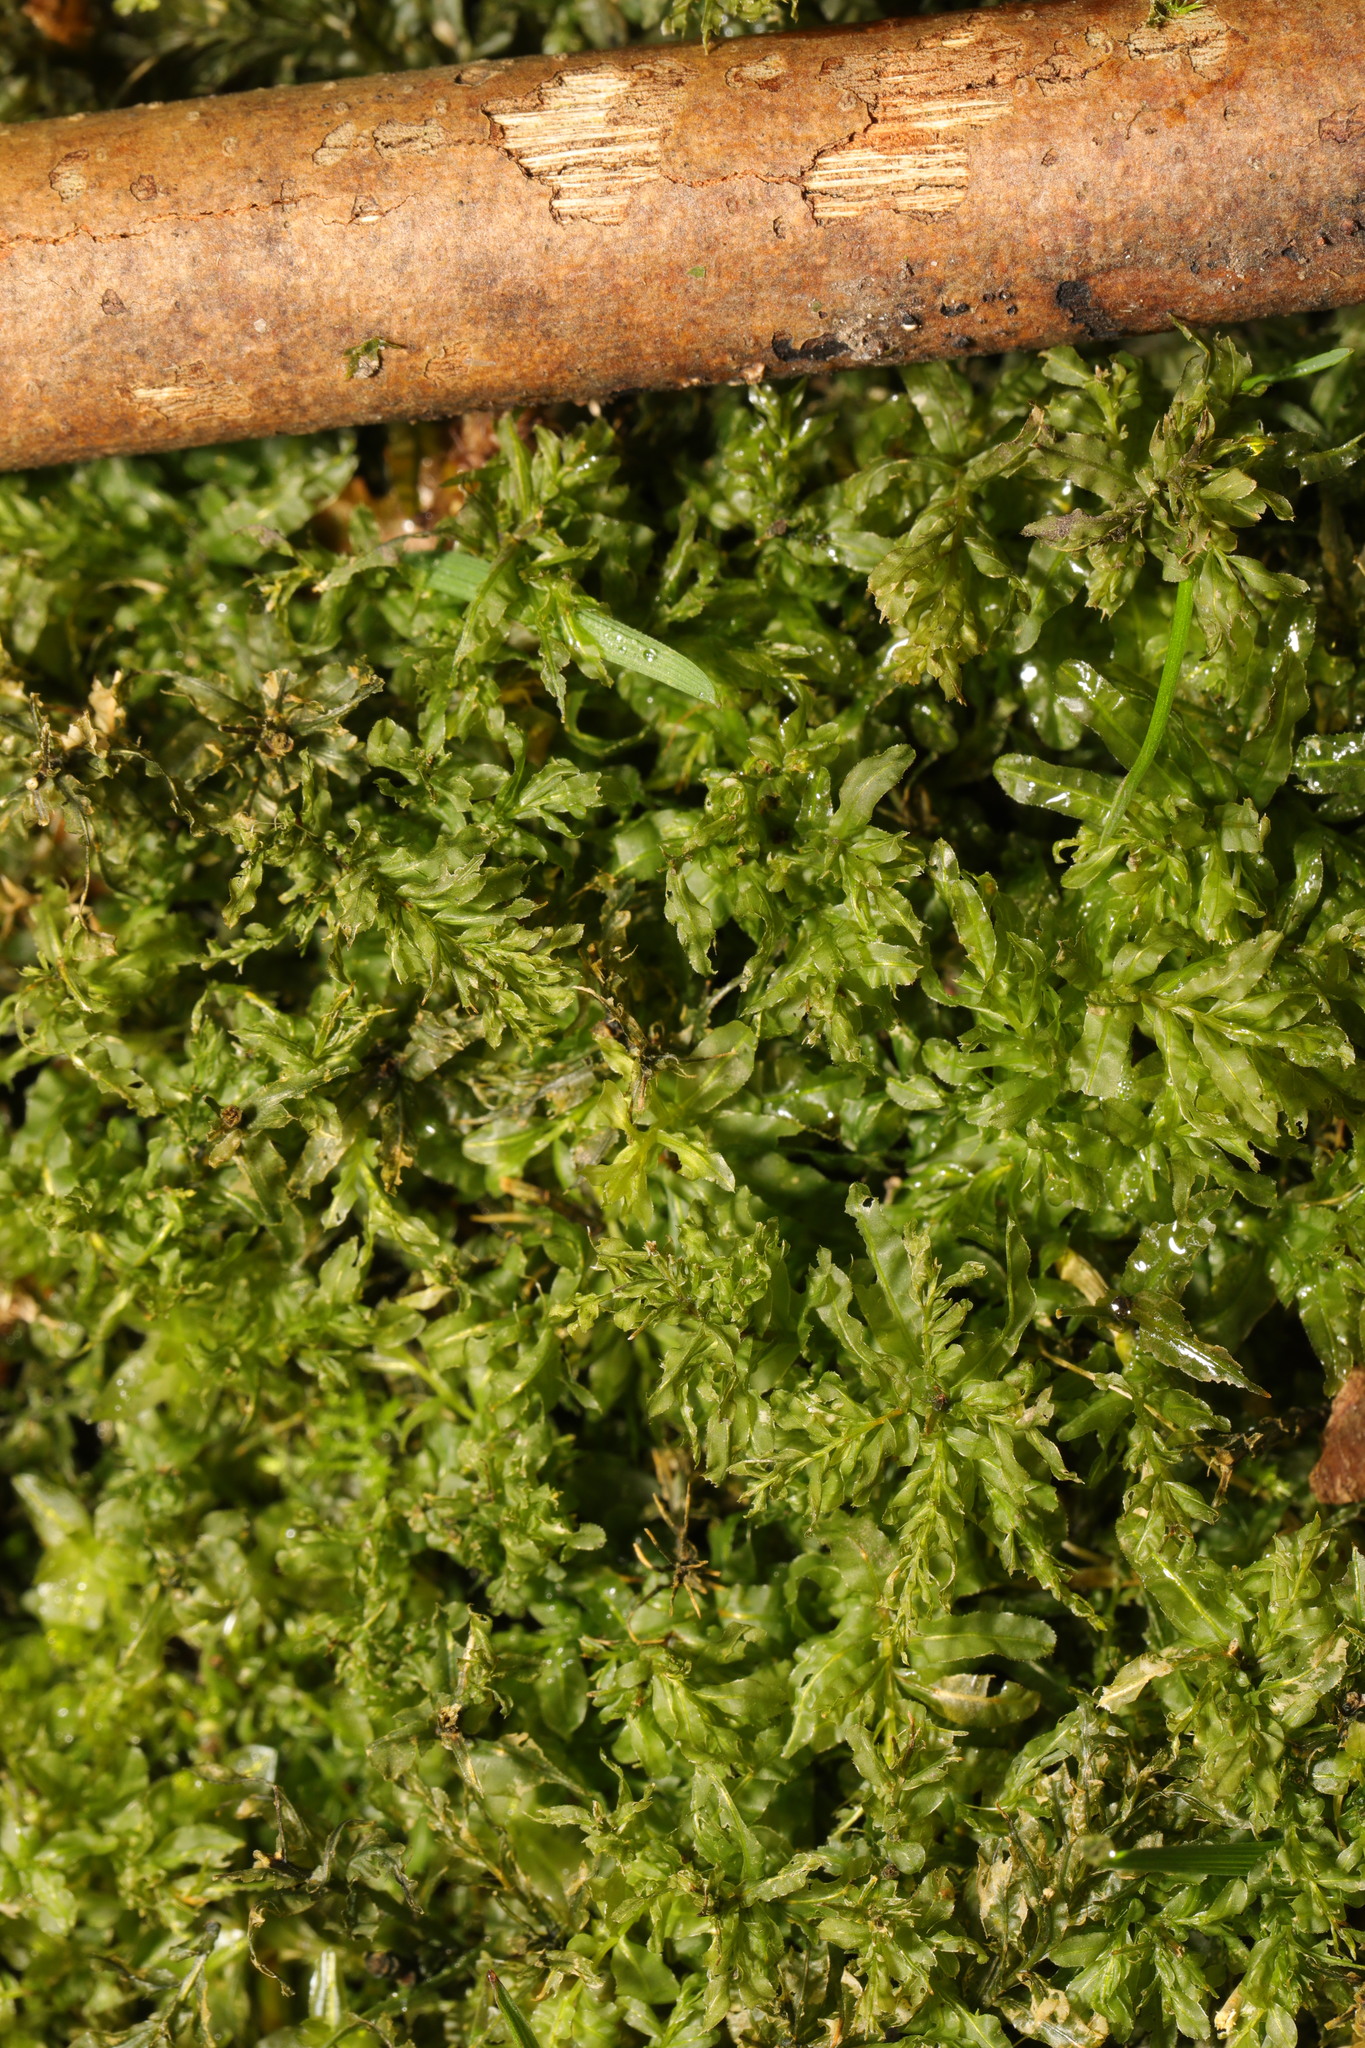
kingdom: Plantae
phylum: Bryophyta
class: Bryopsida
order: Bryales
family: Mniaceae
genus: Plagiomnium
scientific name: Plagiomnium undulatum
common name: Hart's-tongue thyme-moss
